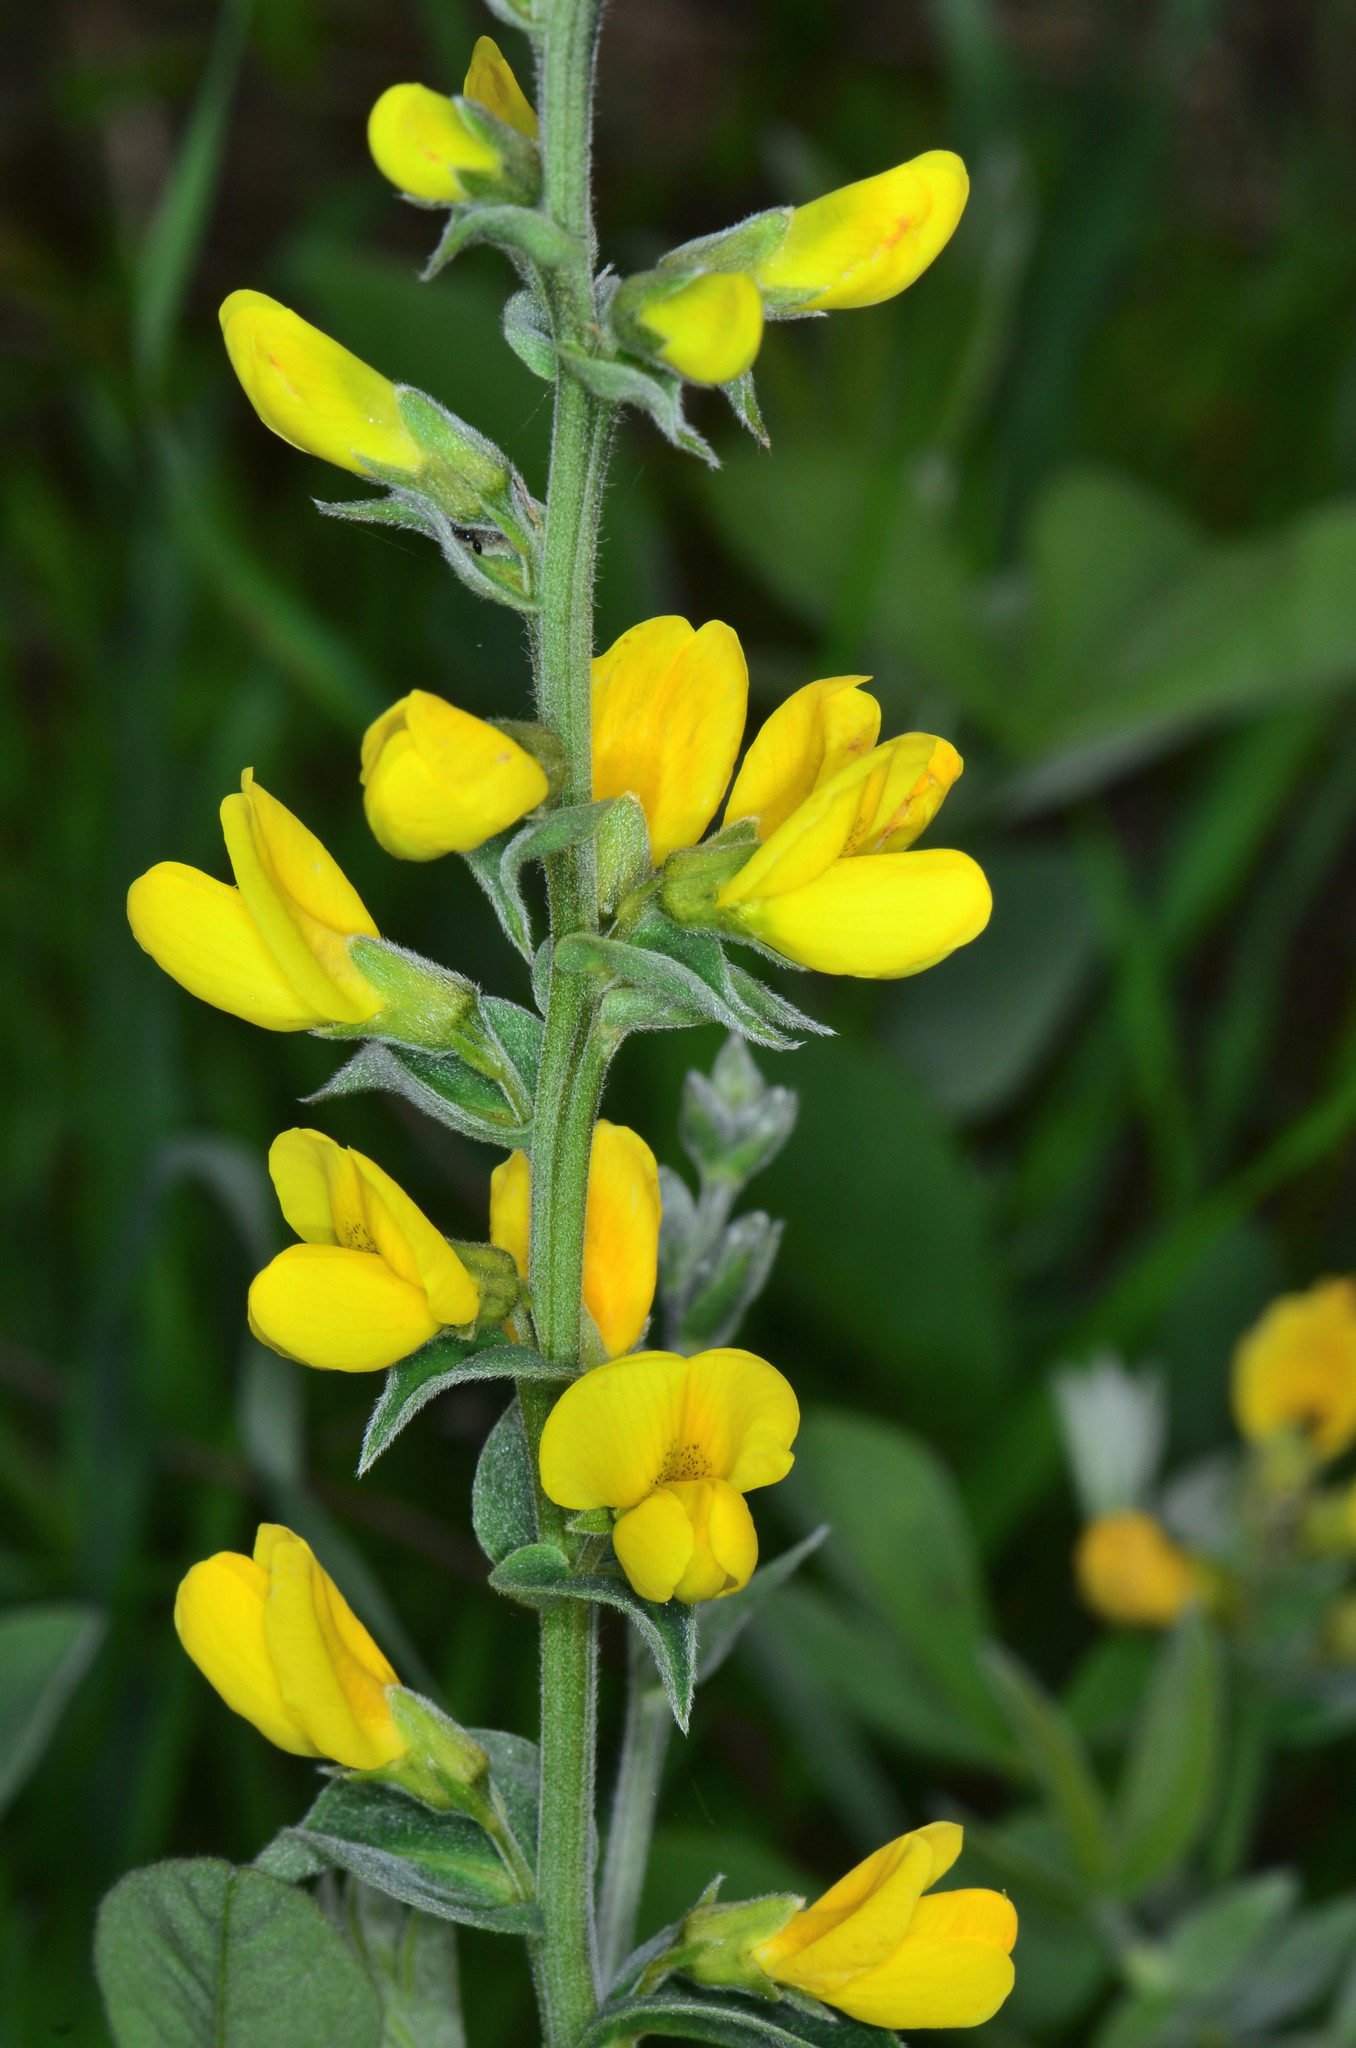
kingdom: Plantae
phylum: Tracheophyta
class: Magnoliopsida
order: Fabales
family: Fabaceae
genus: Thermopsis
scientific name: Thermopsis californica
